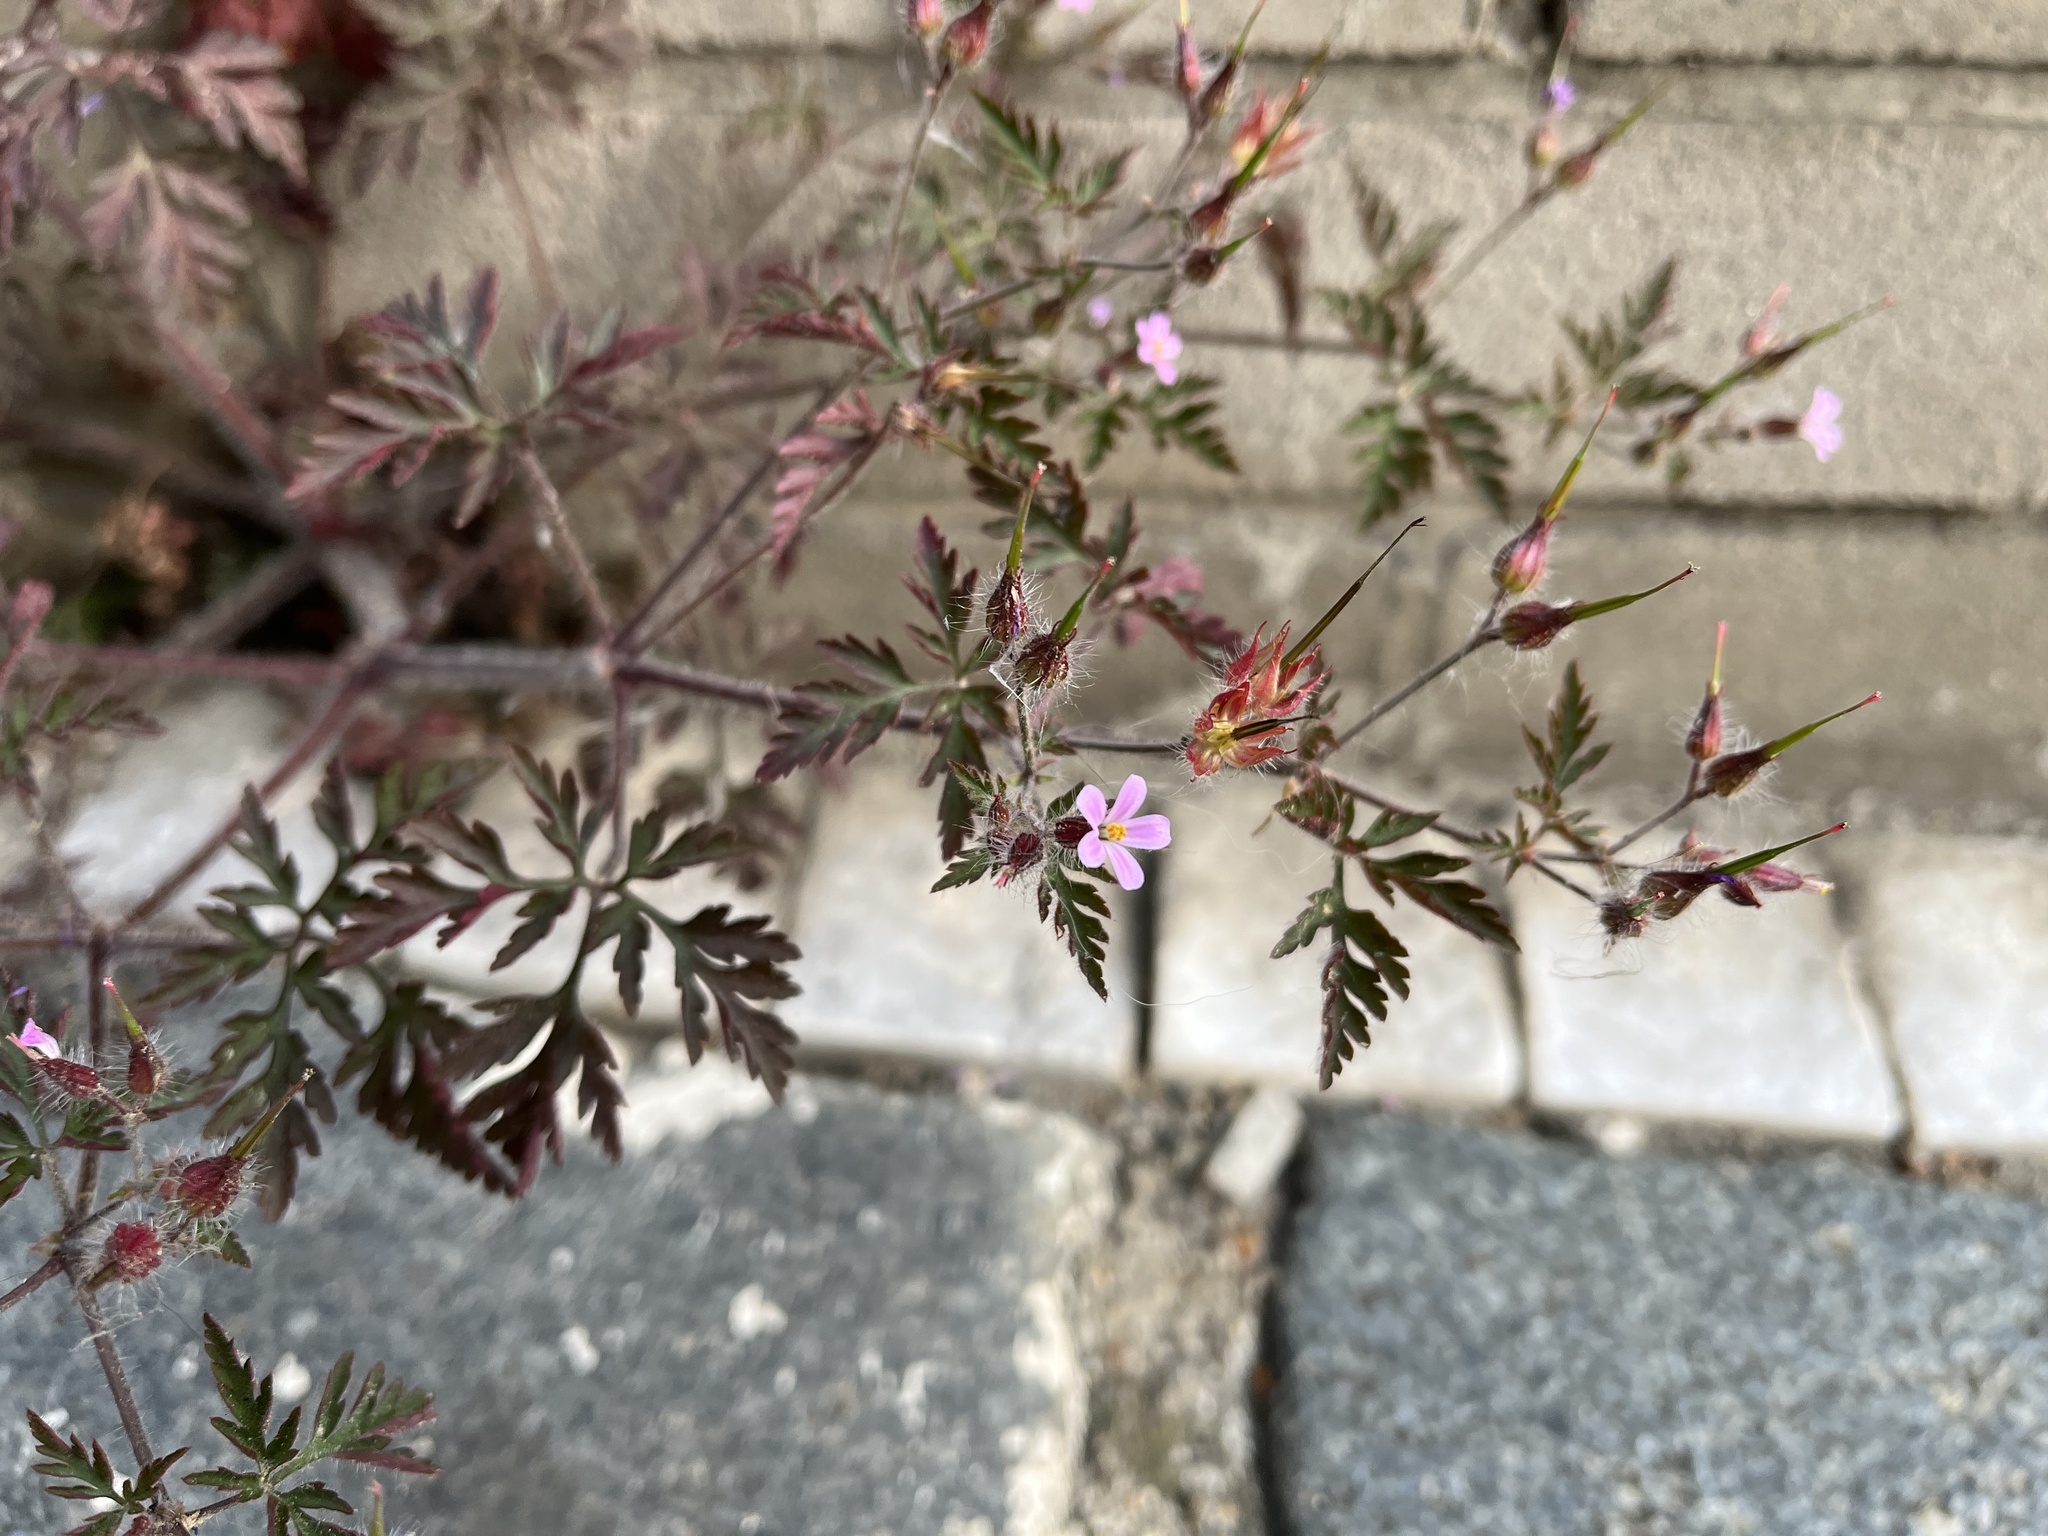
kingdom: Plantae
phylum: Tracheophyta
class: Magnoliopsida
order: Geraniales
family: Geraniaceae
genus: Geranium
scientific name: Geranium robertianum
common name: Herb-robert
